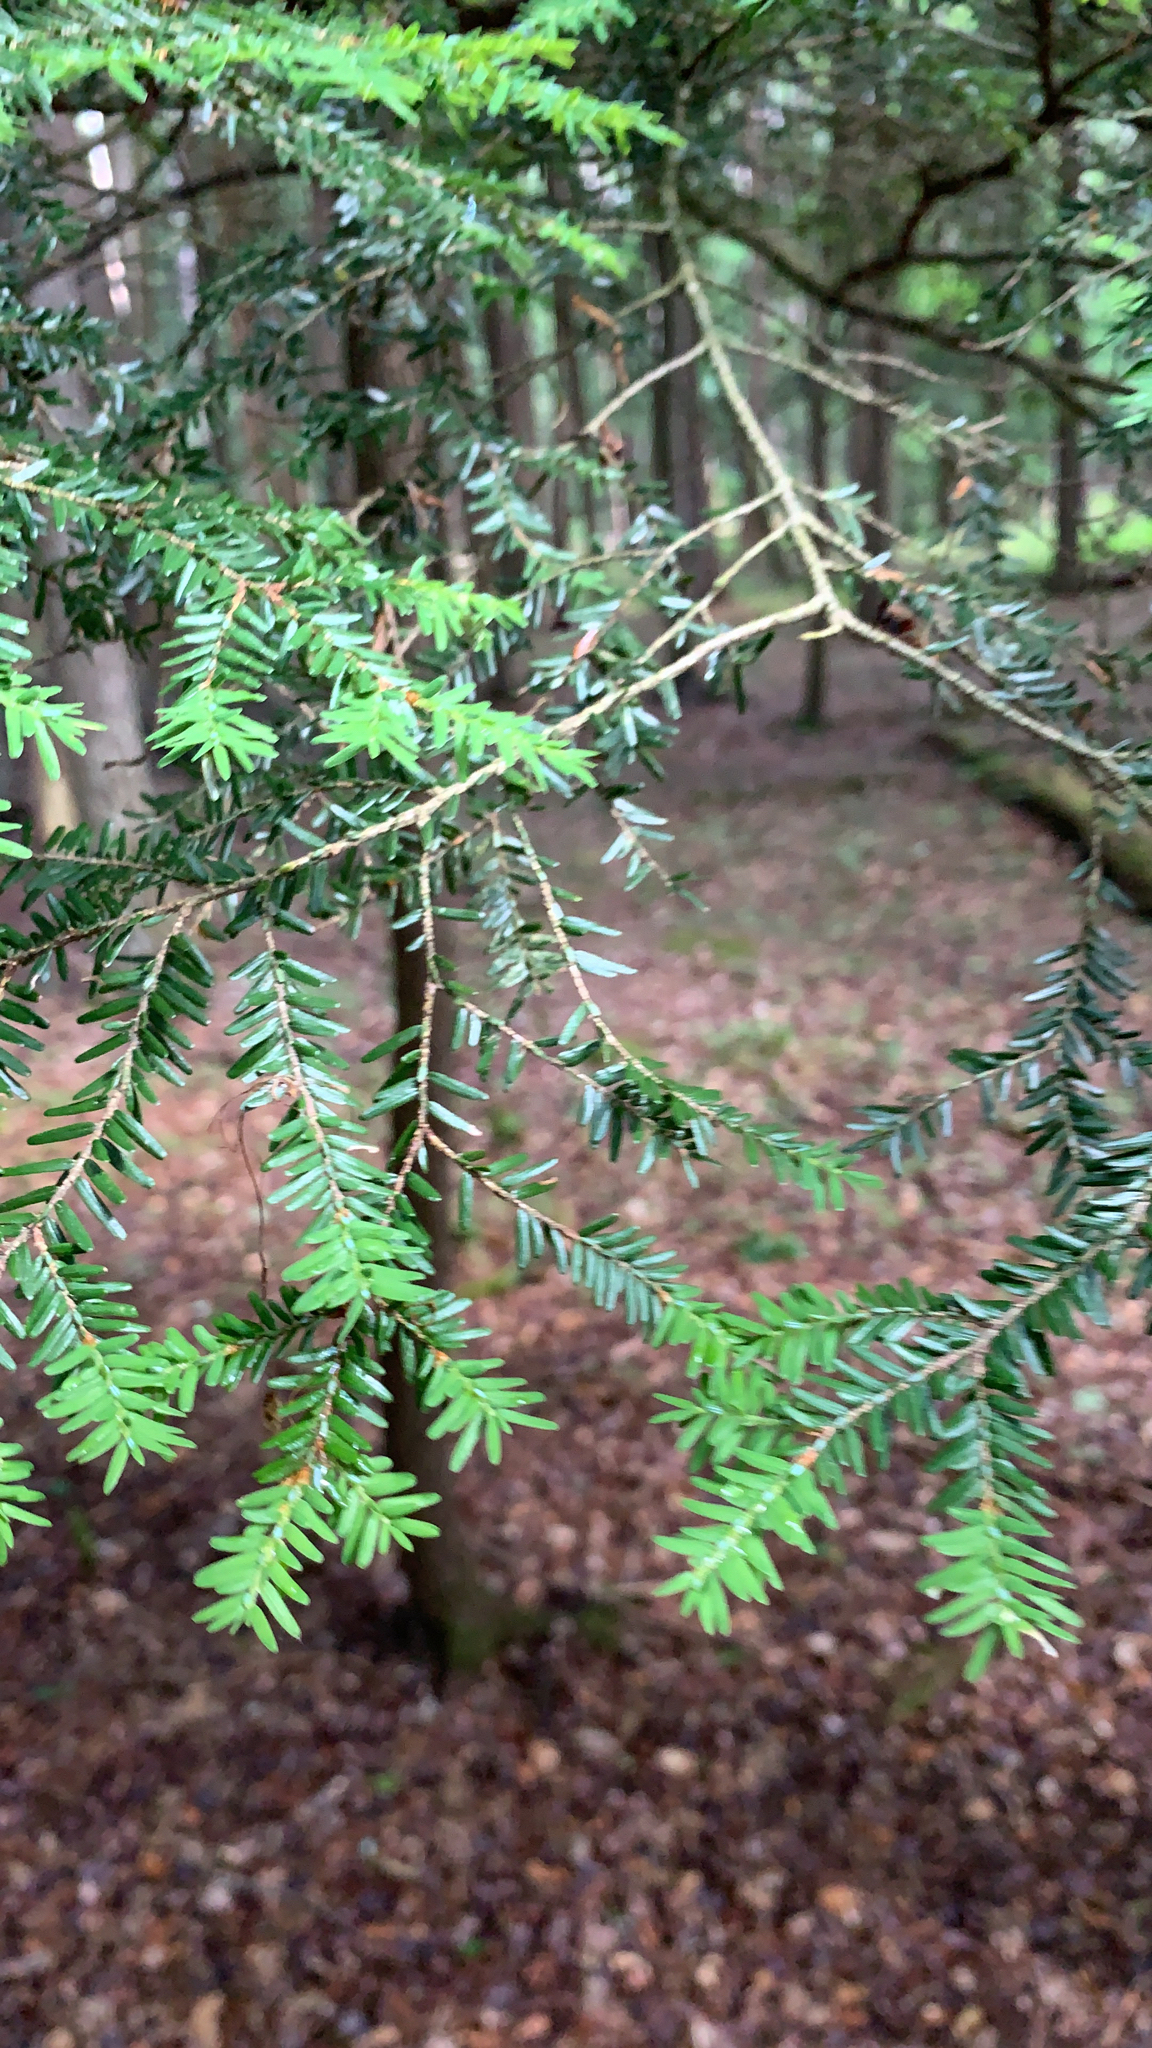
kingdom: Plantae
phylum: Tracheophyta
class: Pinopsida
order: Pinales
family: Pinaceae
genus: Tsuga
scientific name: Tsuga canadensis
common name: Eastern hemlock
